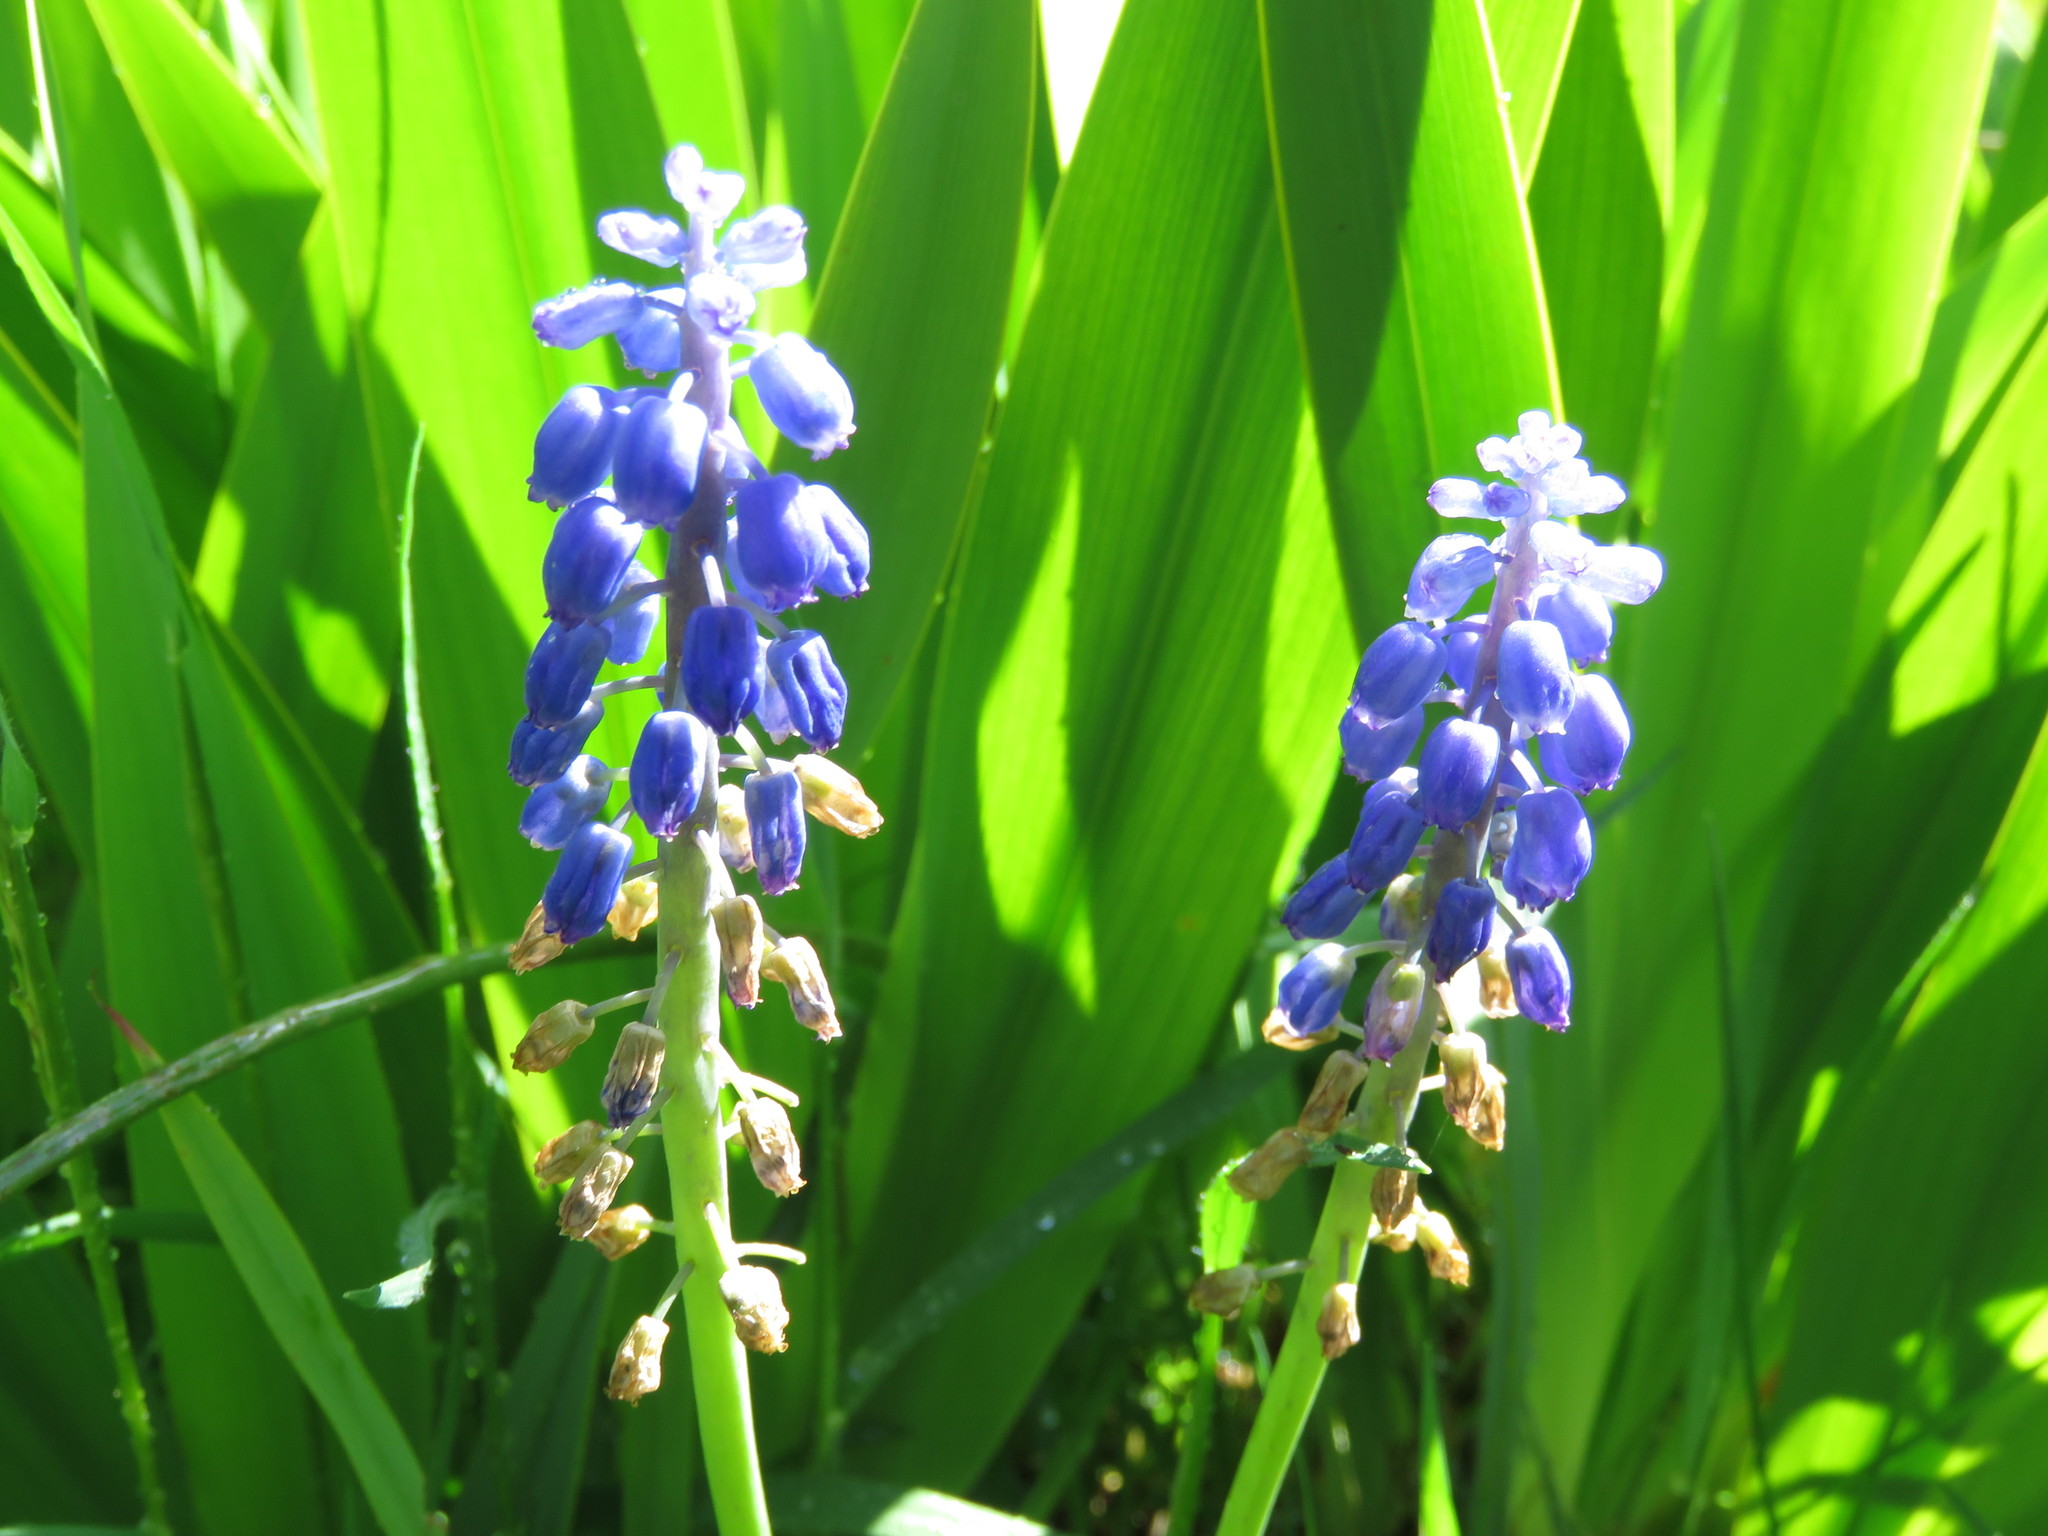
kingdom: Plantae
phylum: Tracheophyta
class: Liliopsida
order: Asparagales
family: Asparagaceae
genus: Muscari
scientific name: Muscari armeniacum
